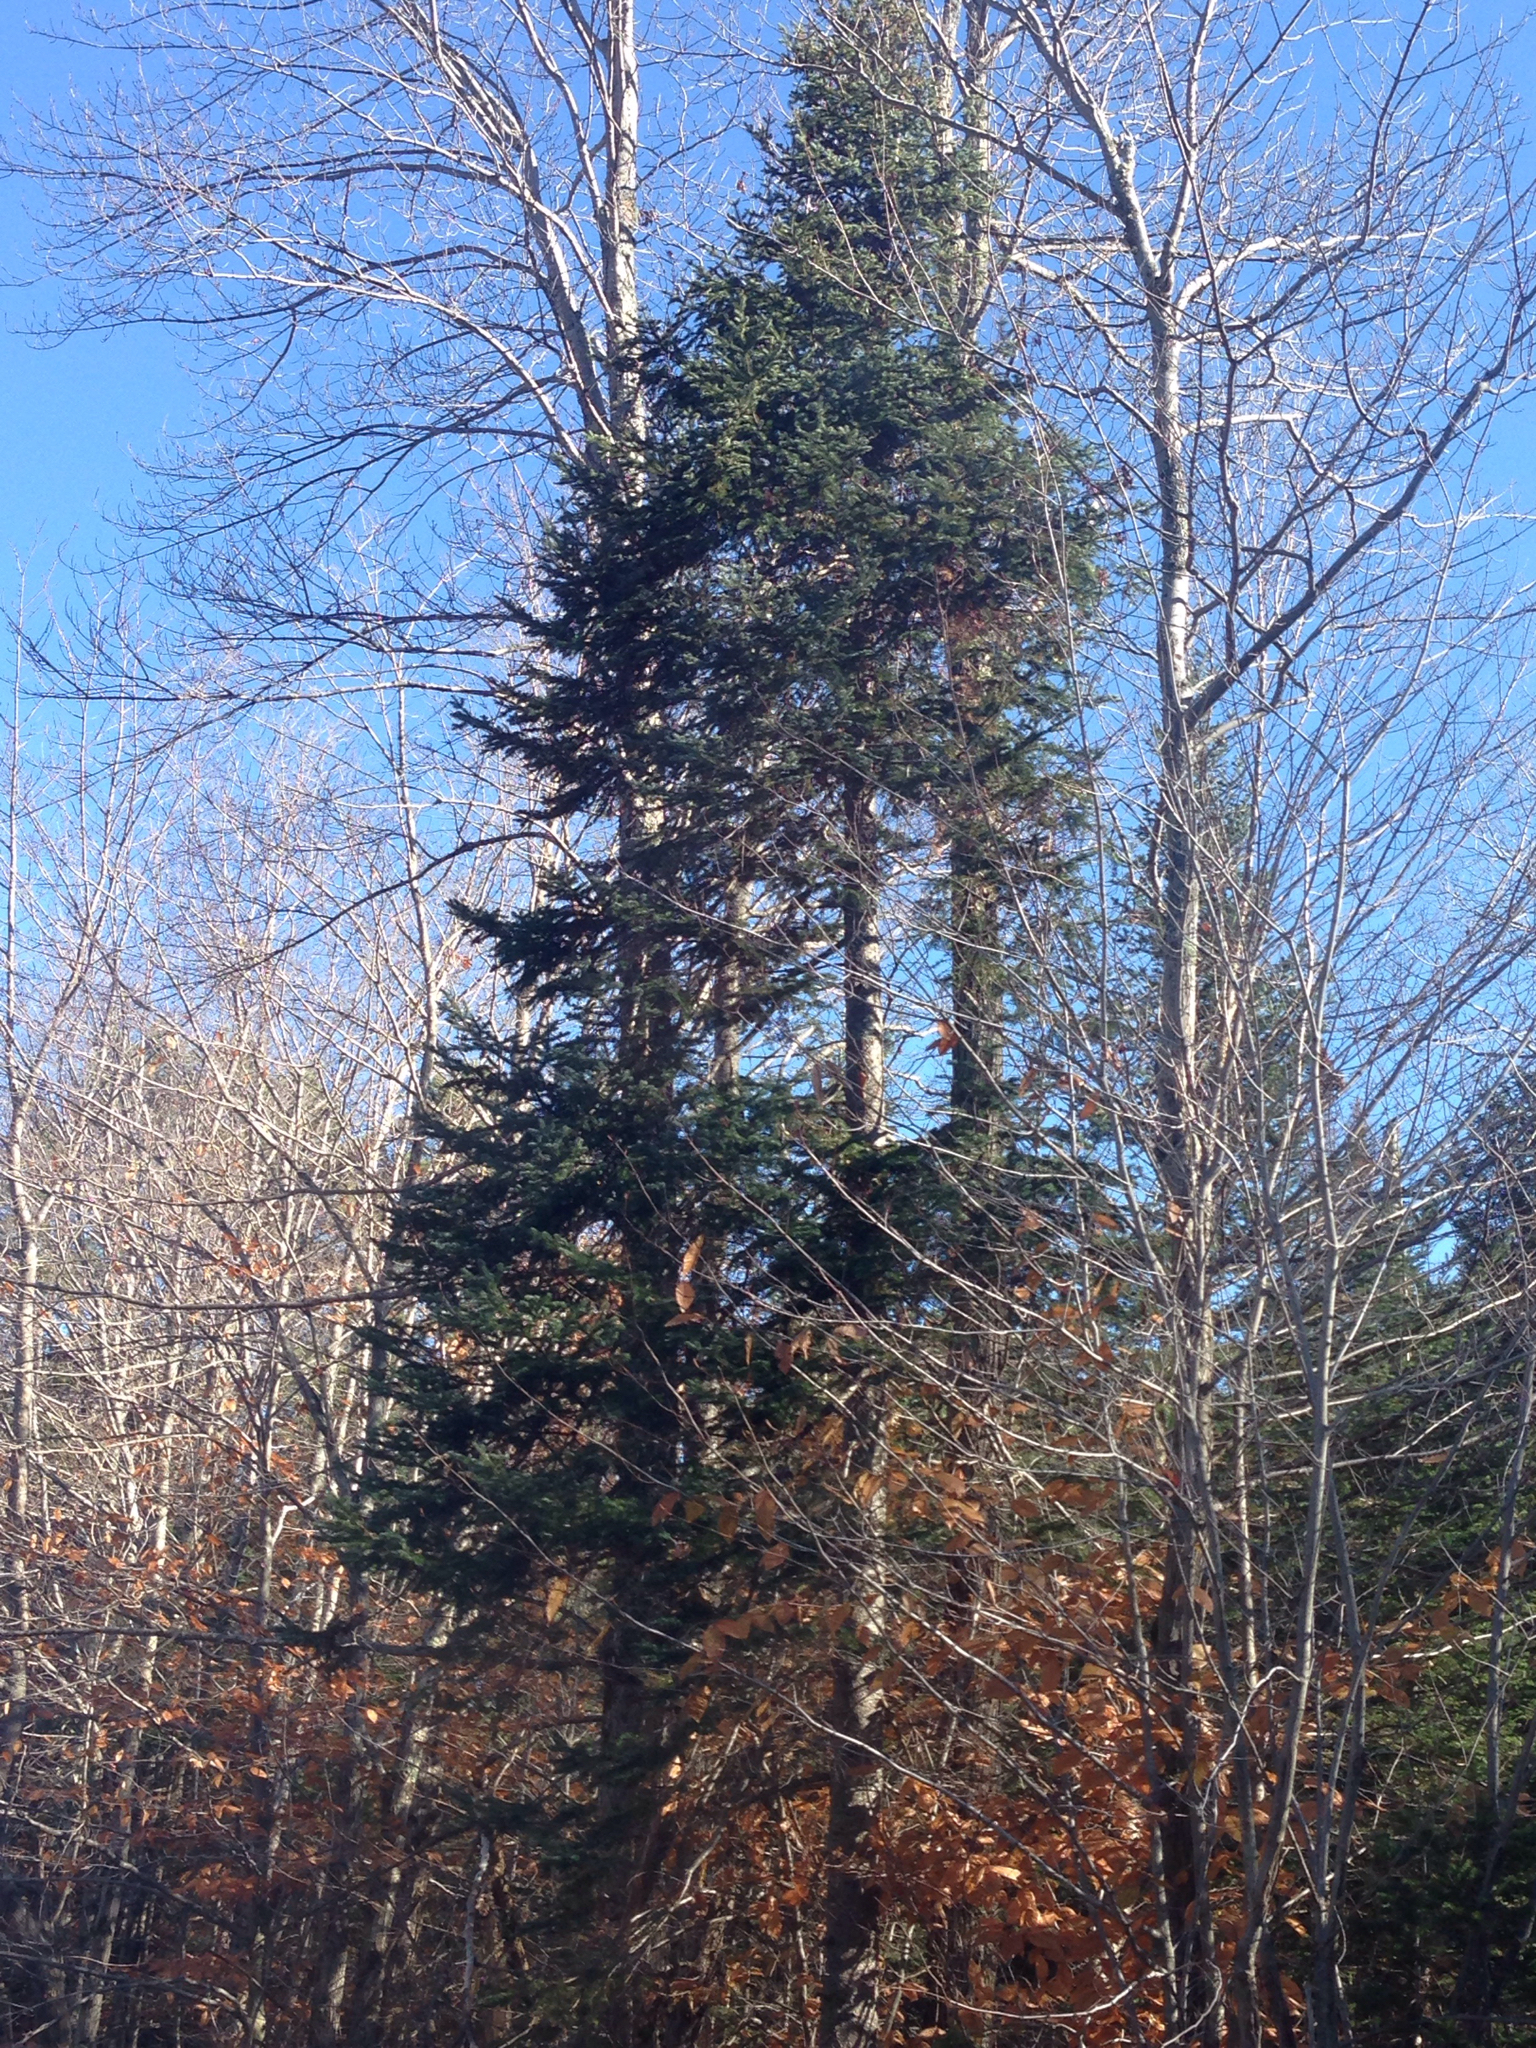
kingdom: Plantae
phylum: Tracheophyta
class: Pinopsida
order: Pinales
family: Pinaceae
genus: Abies
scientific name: Abies balsamea
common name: Balsam fir
